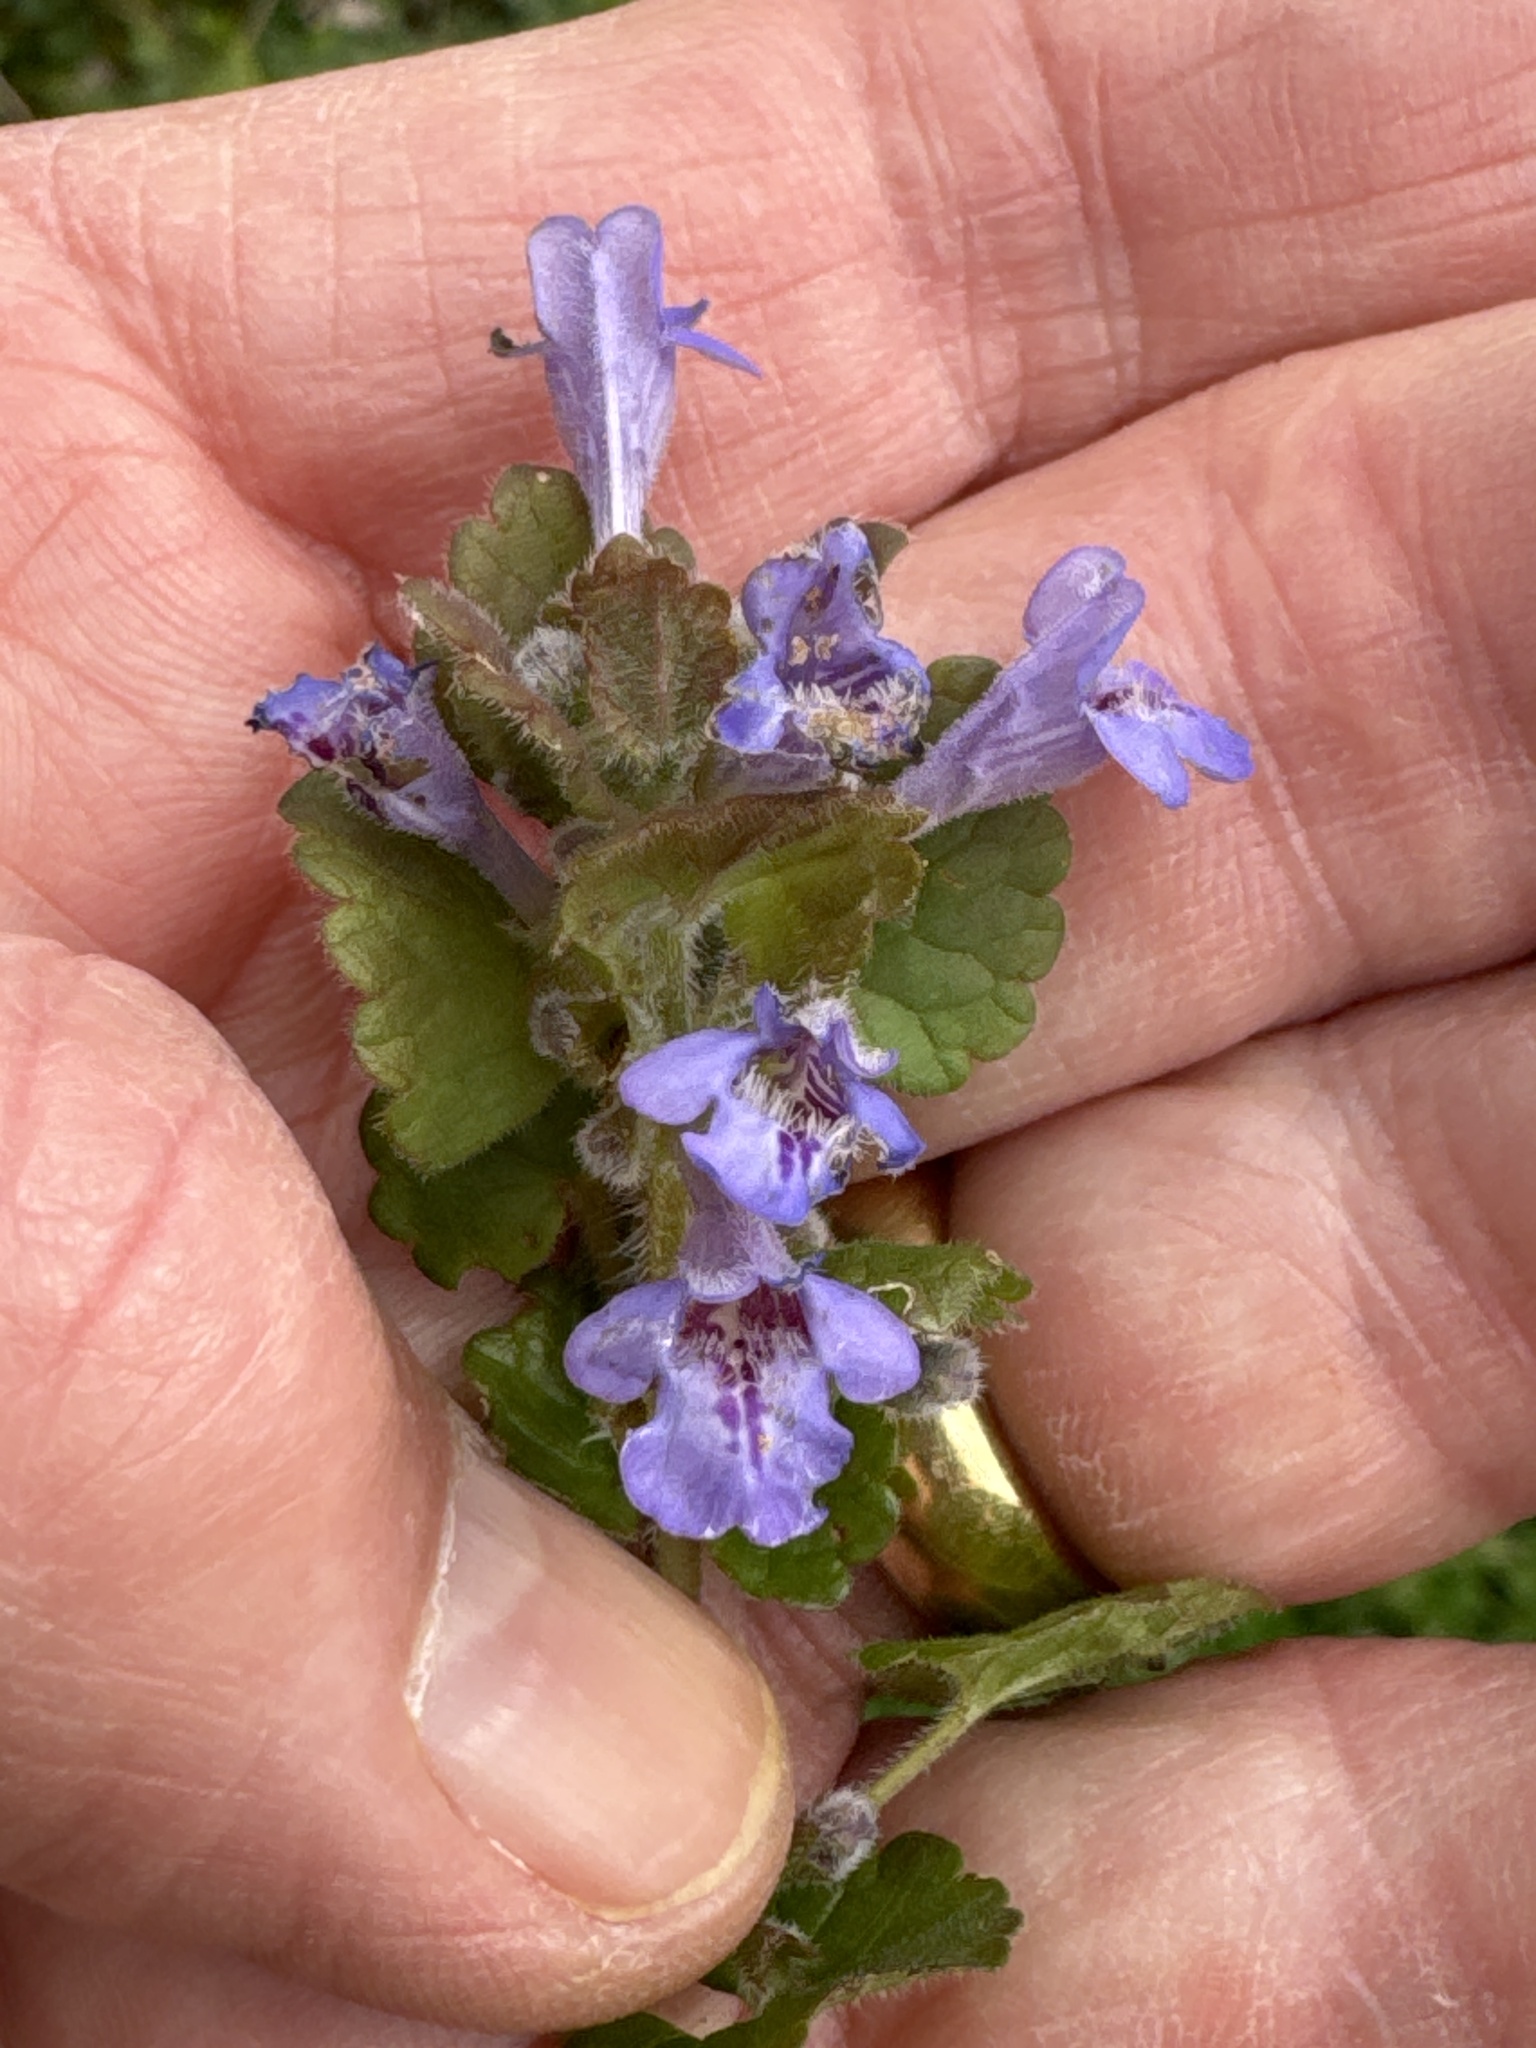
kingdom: Plantae
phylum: Tracheophyta
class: Magnoliopsida
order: Lamiales
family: Lamiaceae
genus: Glechoma
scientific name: Glechoma hederacea
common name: Ground ivy
